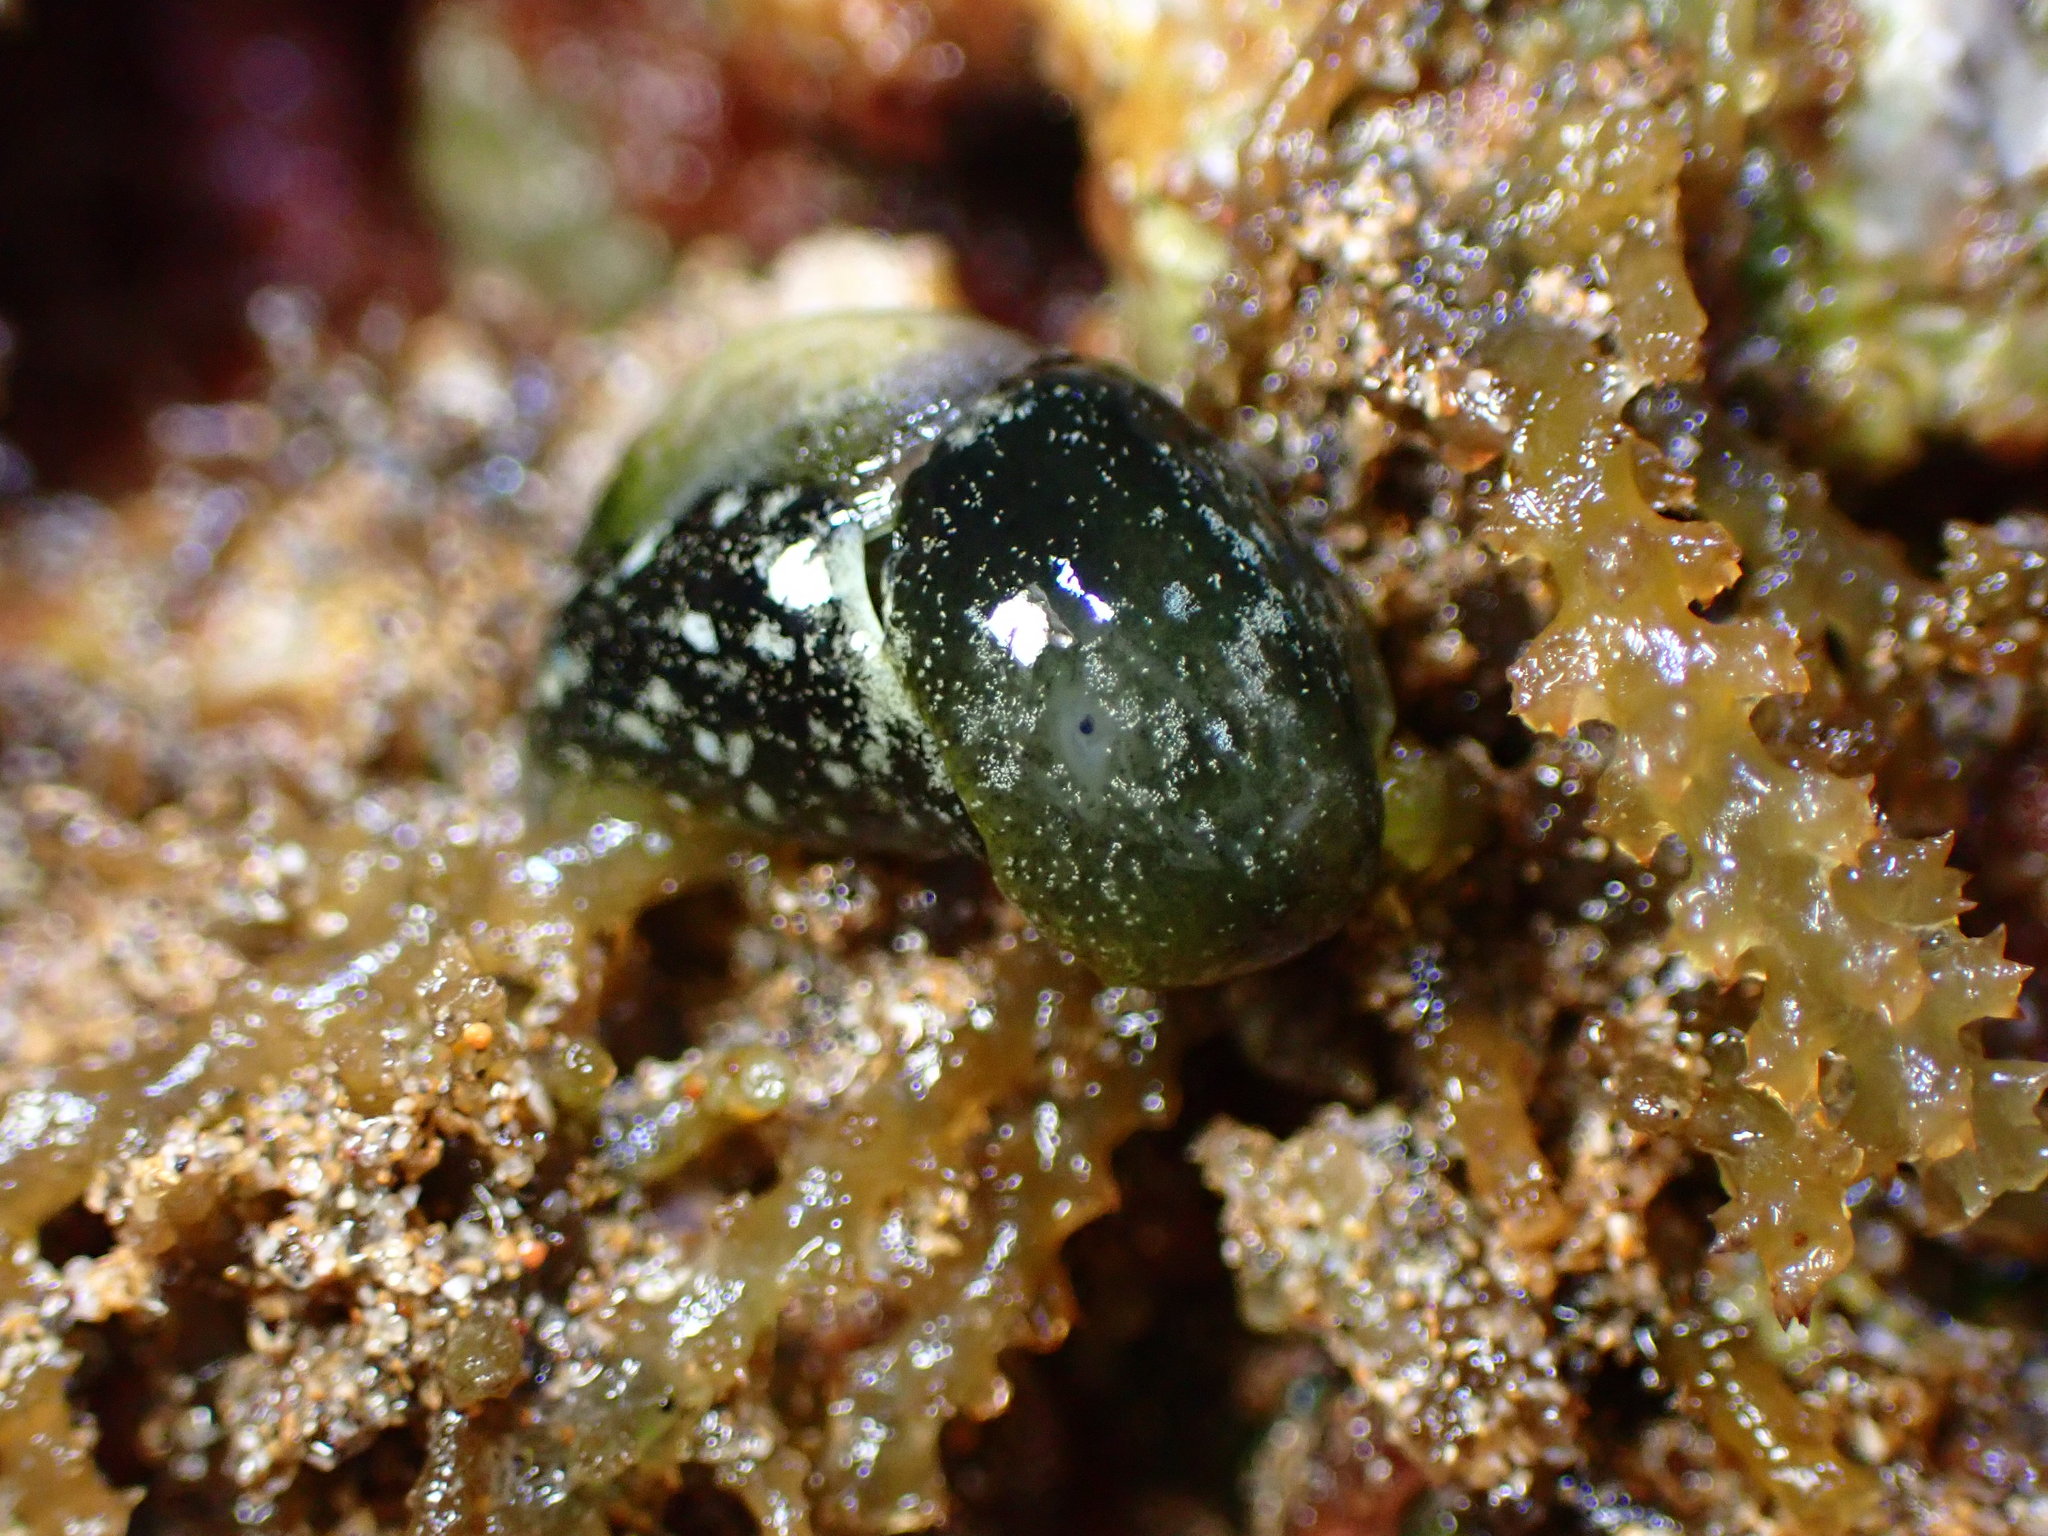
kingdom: Animalia
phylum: Mollusca
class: Gastropoda
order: Cephalaspidea
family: Haminoeidae
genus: Smaragdinella
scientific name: Smaragdinella calyculata
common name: Emerald bubble
